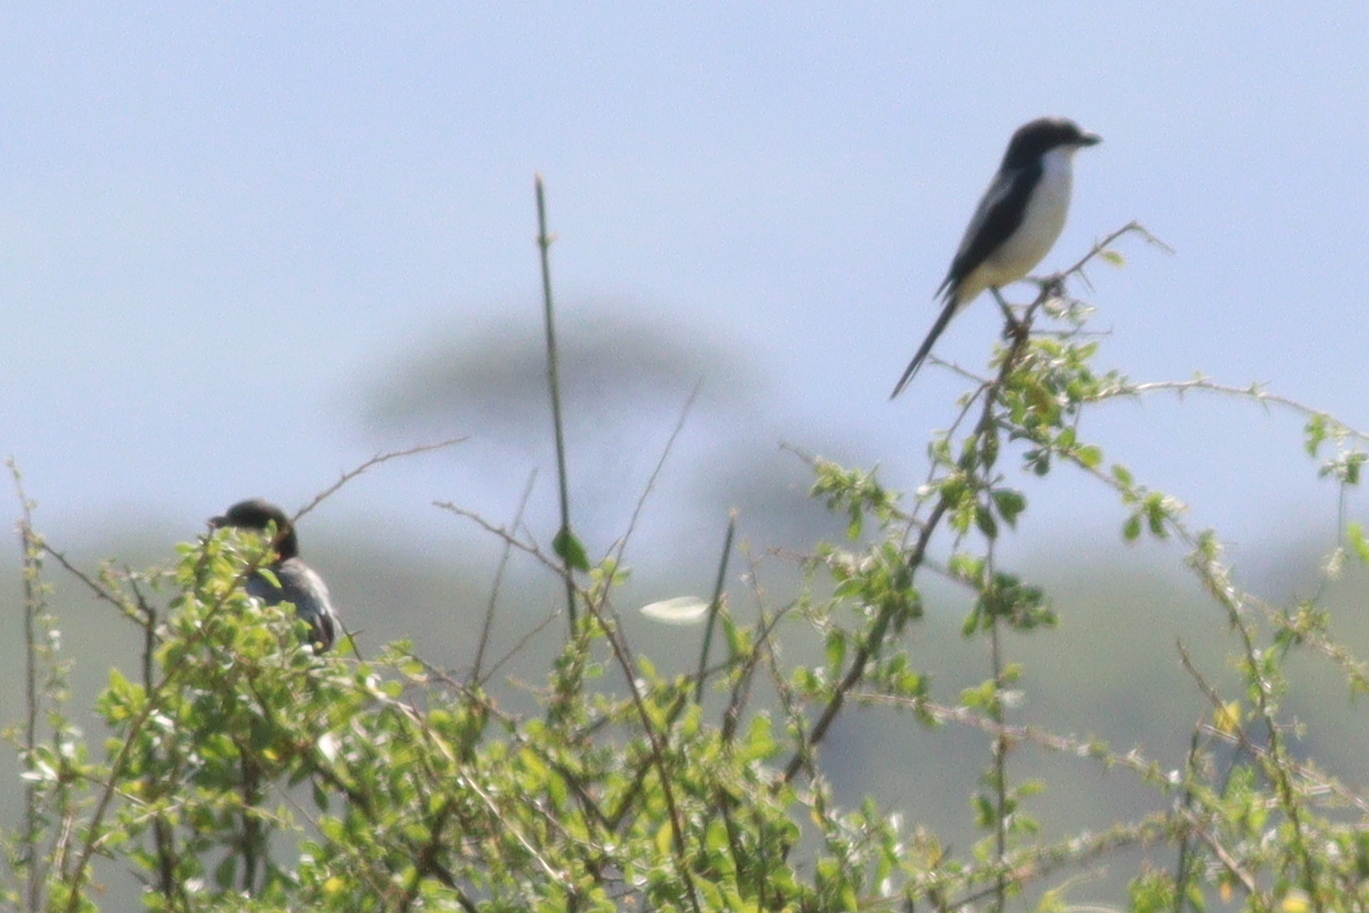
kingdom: Animalia
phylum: Chordata
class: Aves
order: Passeriformes
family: Laniidae
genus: Lanius
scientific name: Lanius dorsalis
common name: Taita fiscal
